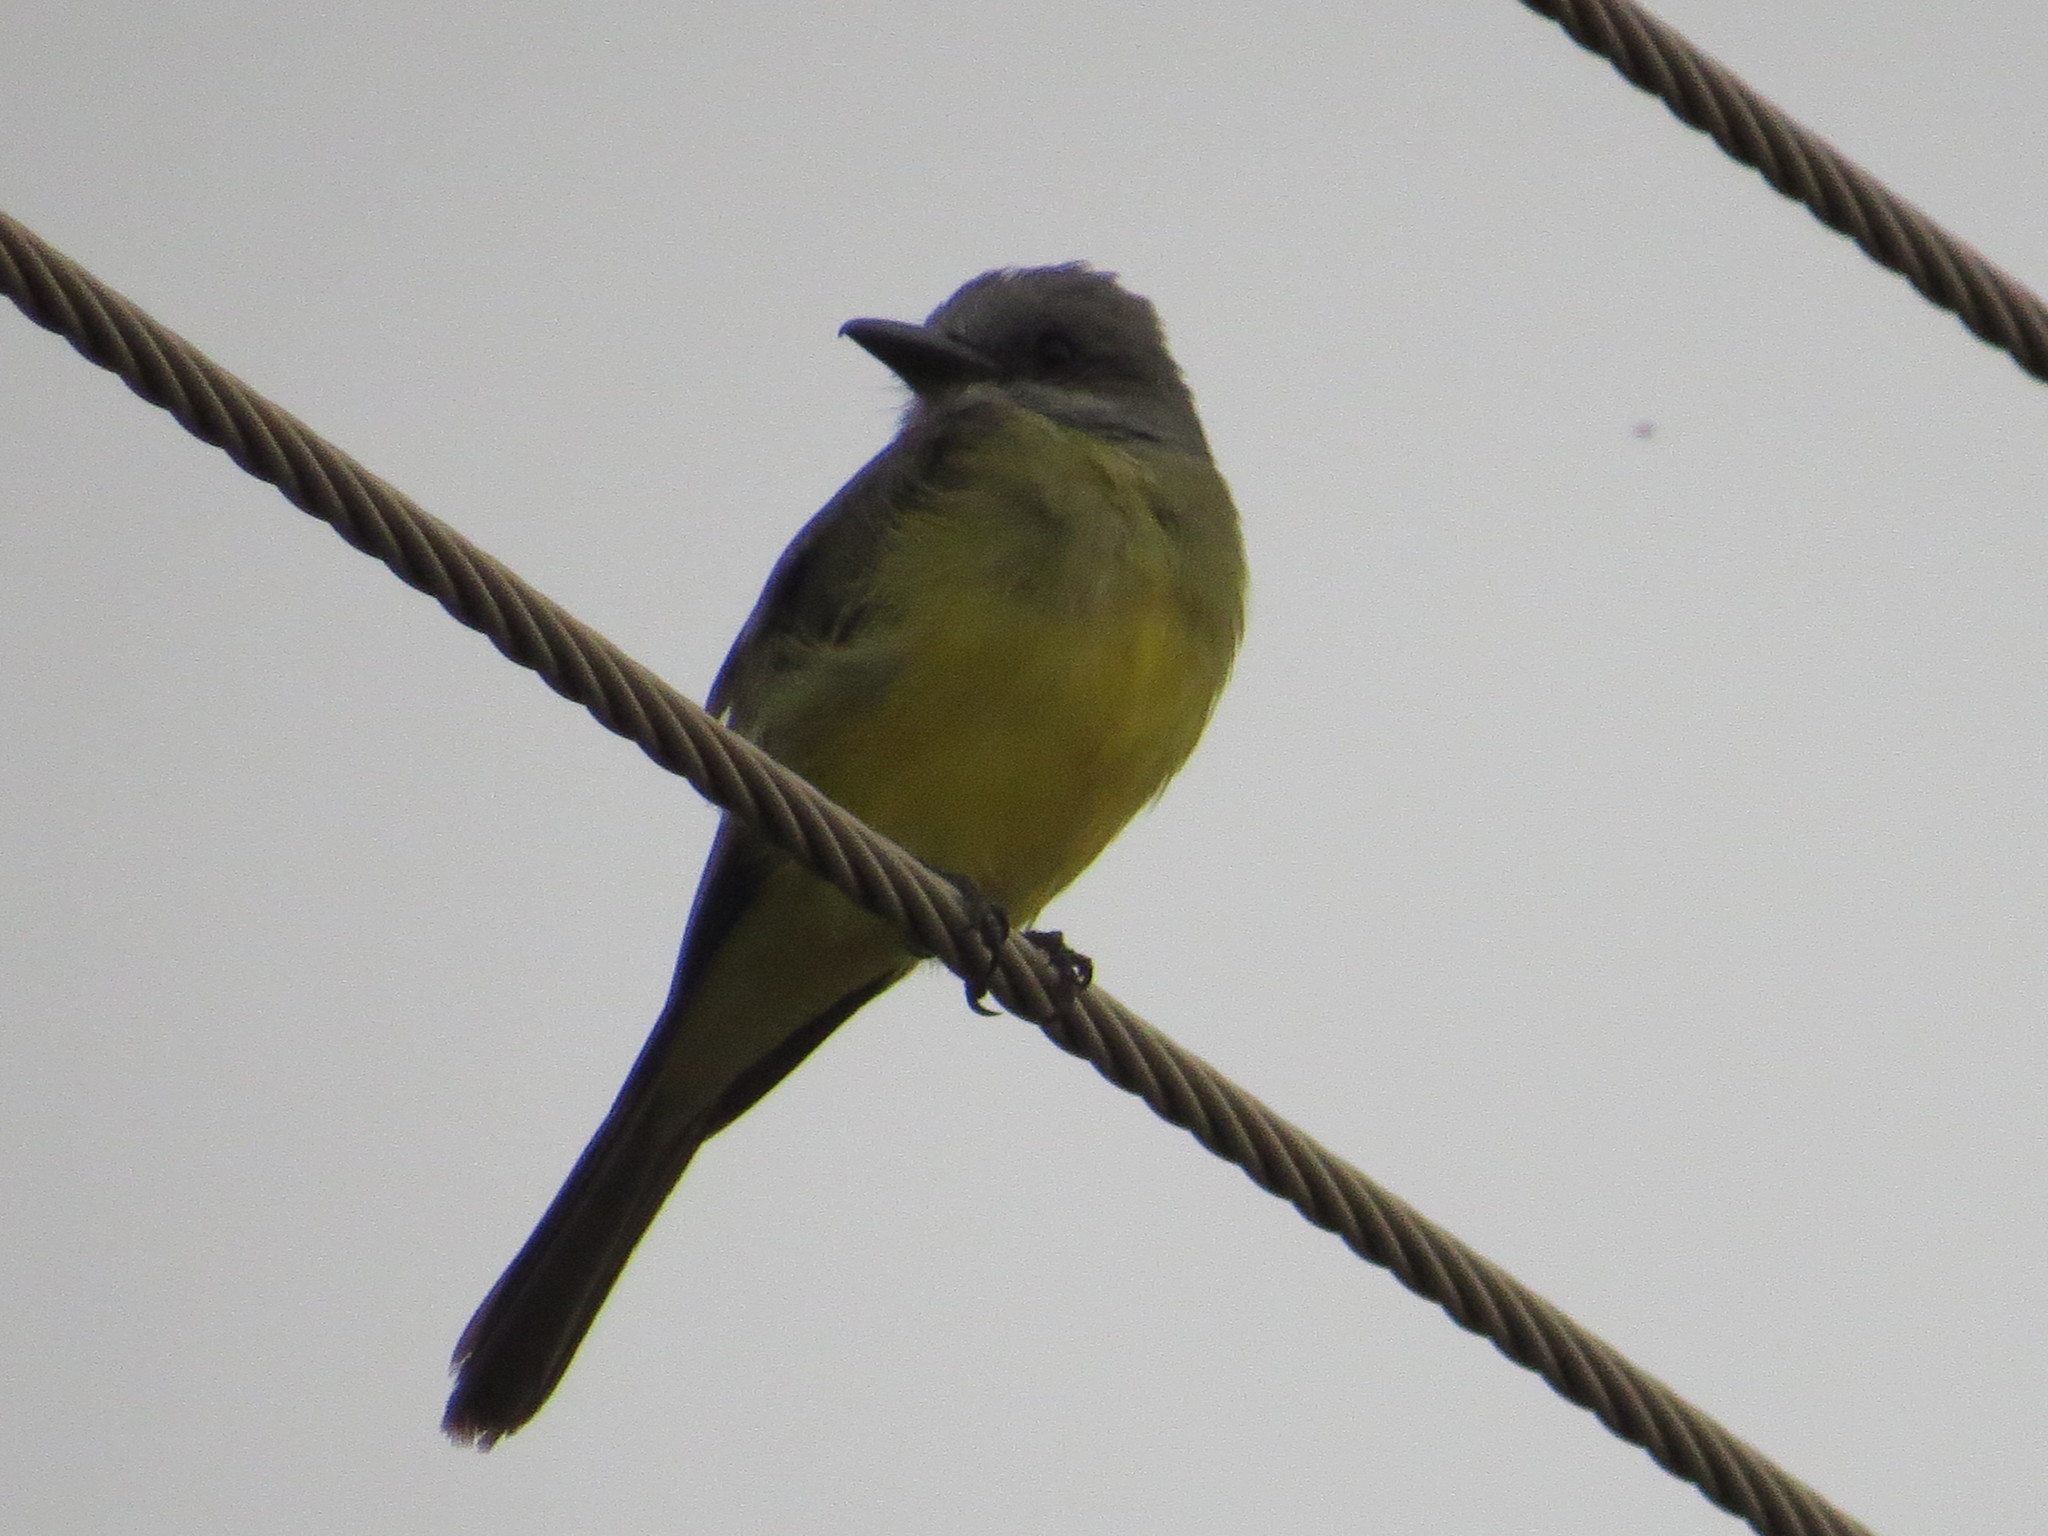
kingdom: Animalia
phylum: Chordata
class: Aves
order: Passeriformes
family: Tyrannidae
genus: Tyrannus
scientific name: Tyrannus melancholicus
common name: Tropical kingbird
